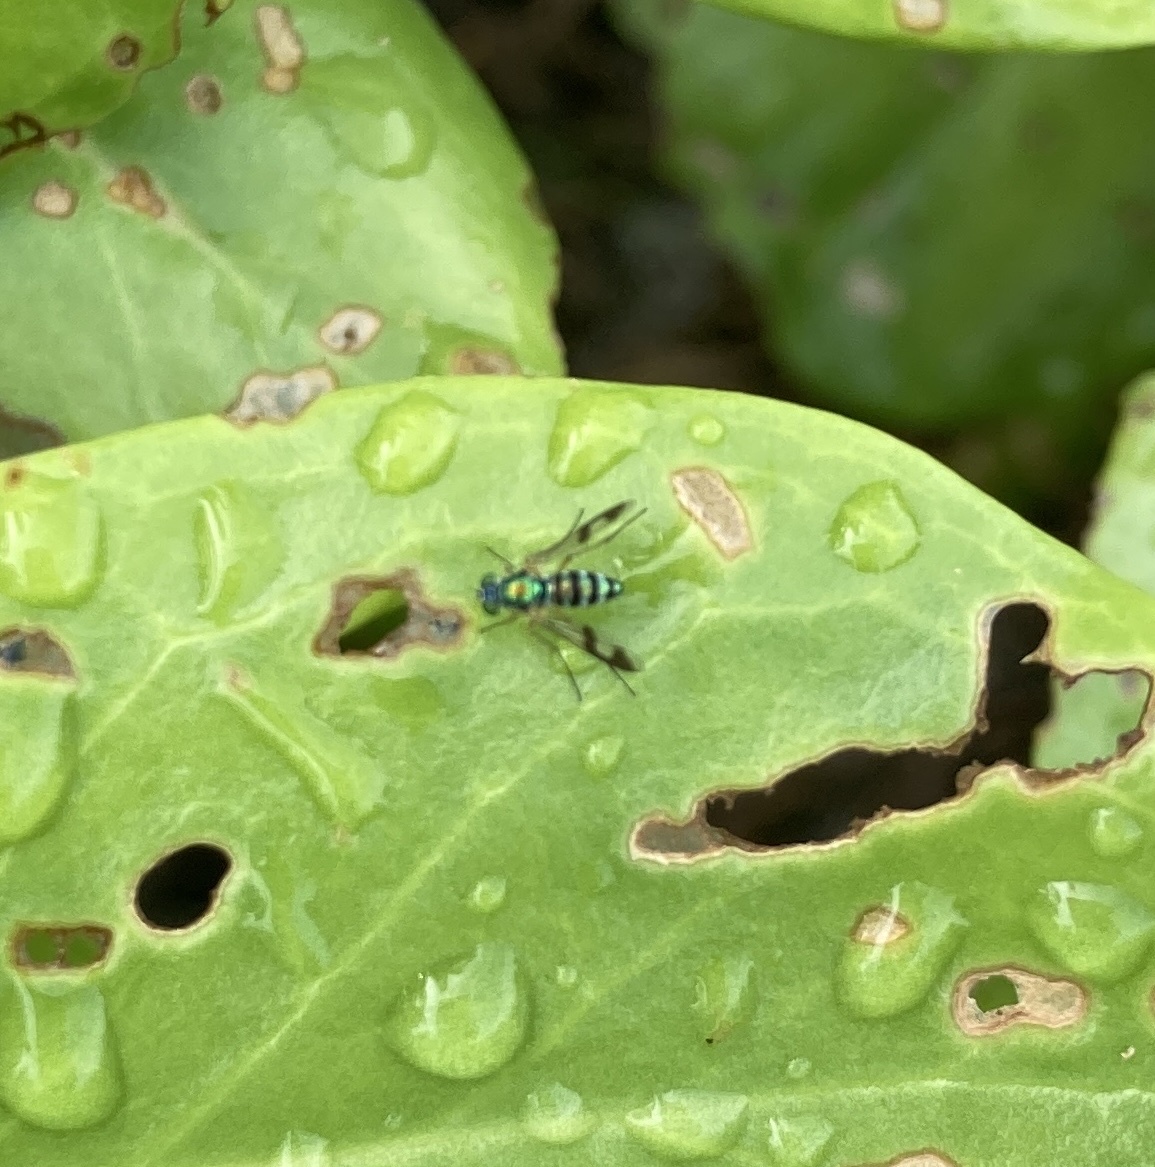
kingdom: Animalia
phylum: Arthropoda
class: Insecta
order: Diptera
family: Dolichopodidae
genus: Austrosciapus
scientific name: Austrosciapus connexus
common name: Green long-legged fly
